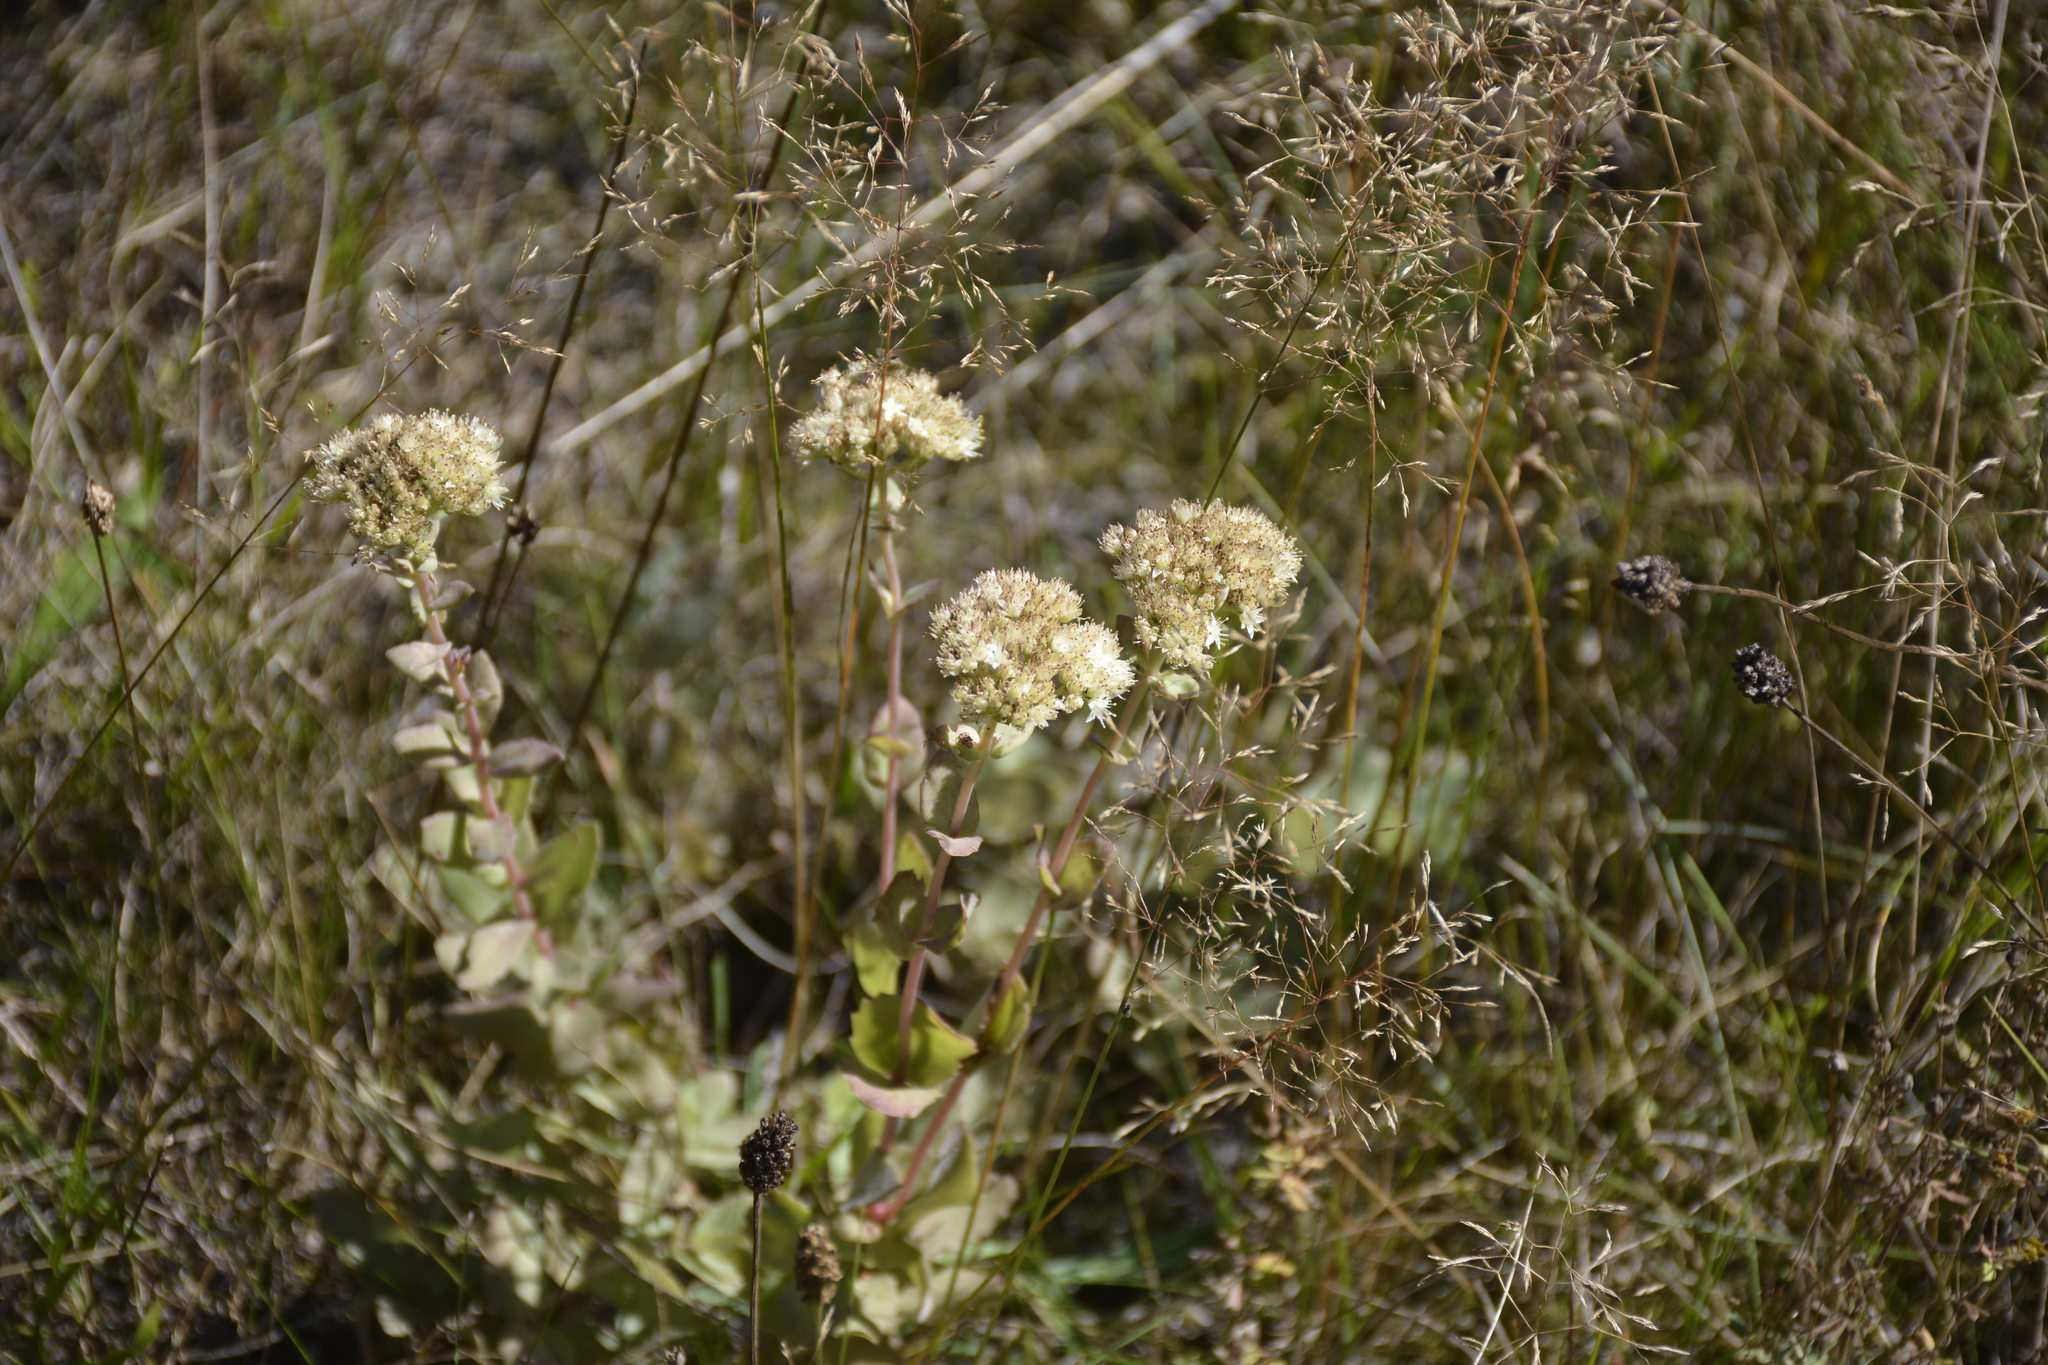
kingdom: Plantae
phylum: Tracheophyta
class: Magnoliopsida
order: Saxifragales
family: Crassulaceae
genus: Hylotelephium
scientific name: Hylotelephium maximum
